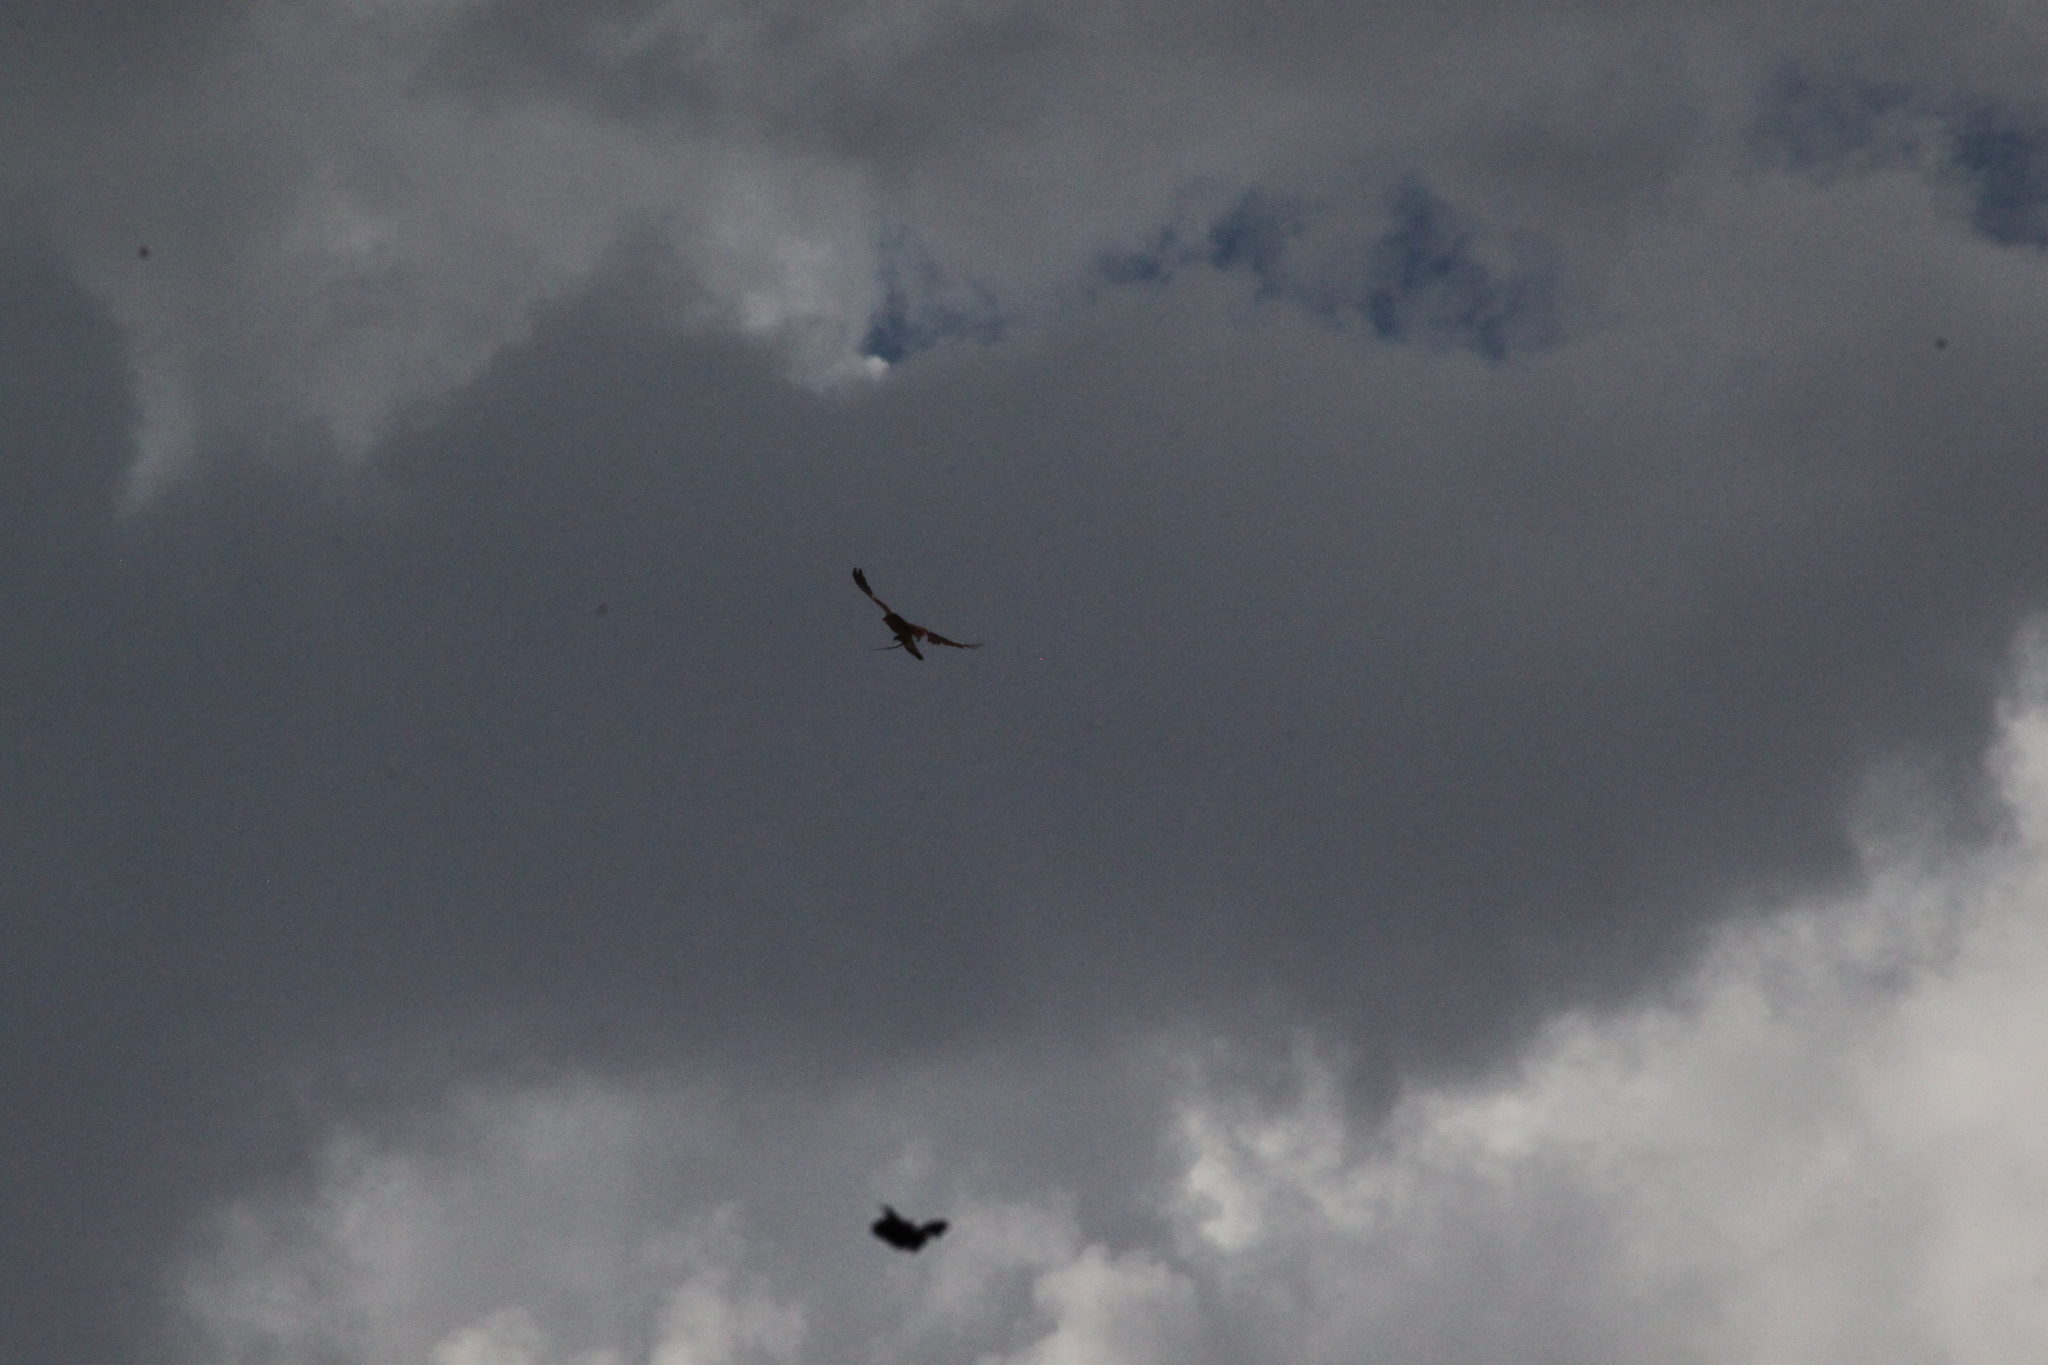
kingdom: Animalia
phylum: Chordata
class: Aves
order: Falconiformes
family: Falconidae
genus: Falco
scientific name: Falco tinnunculus
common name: Common kestrel
